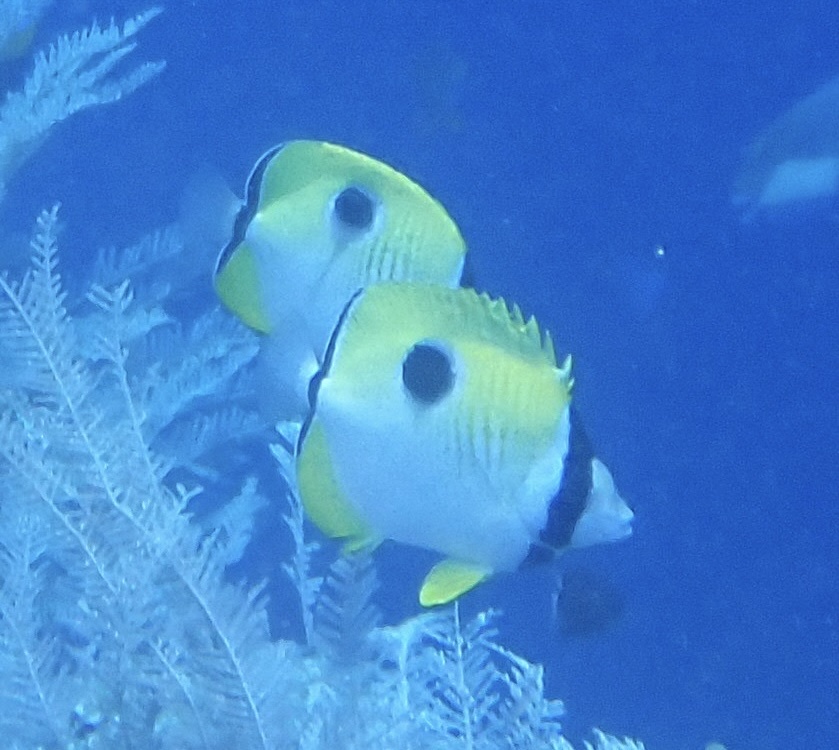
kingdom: Animalia
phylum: Chordata
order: Perciformes
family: Chaetodontidae
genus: Chaetodon
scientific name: Chaetodon unimaculatus
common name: Teardrop butterflyfish
